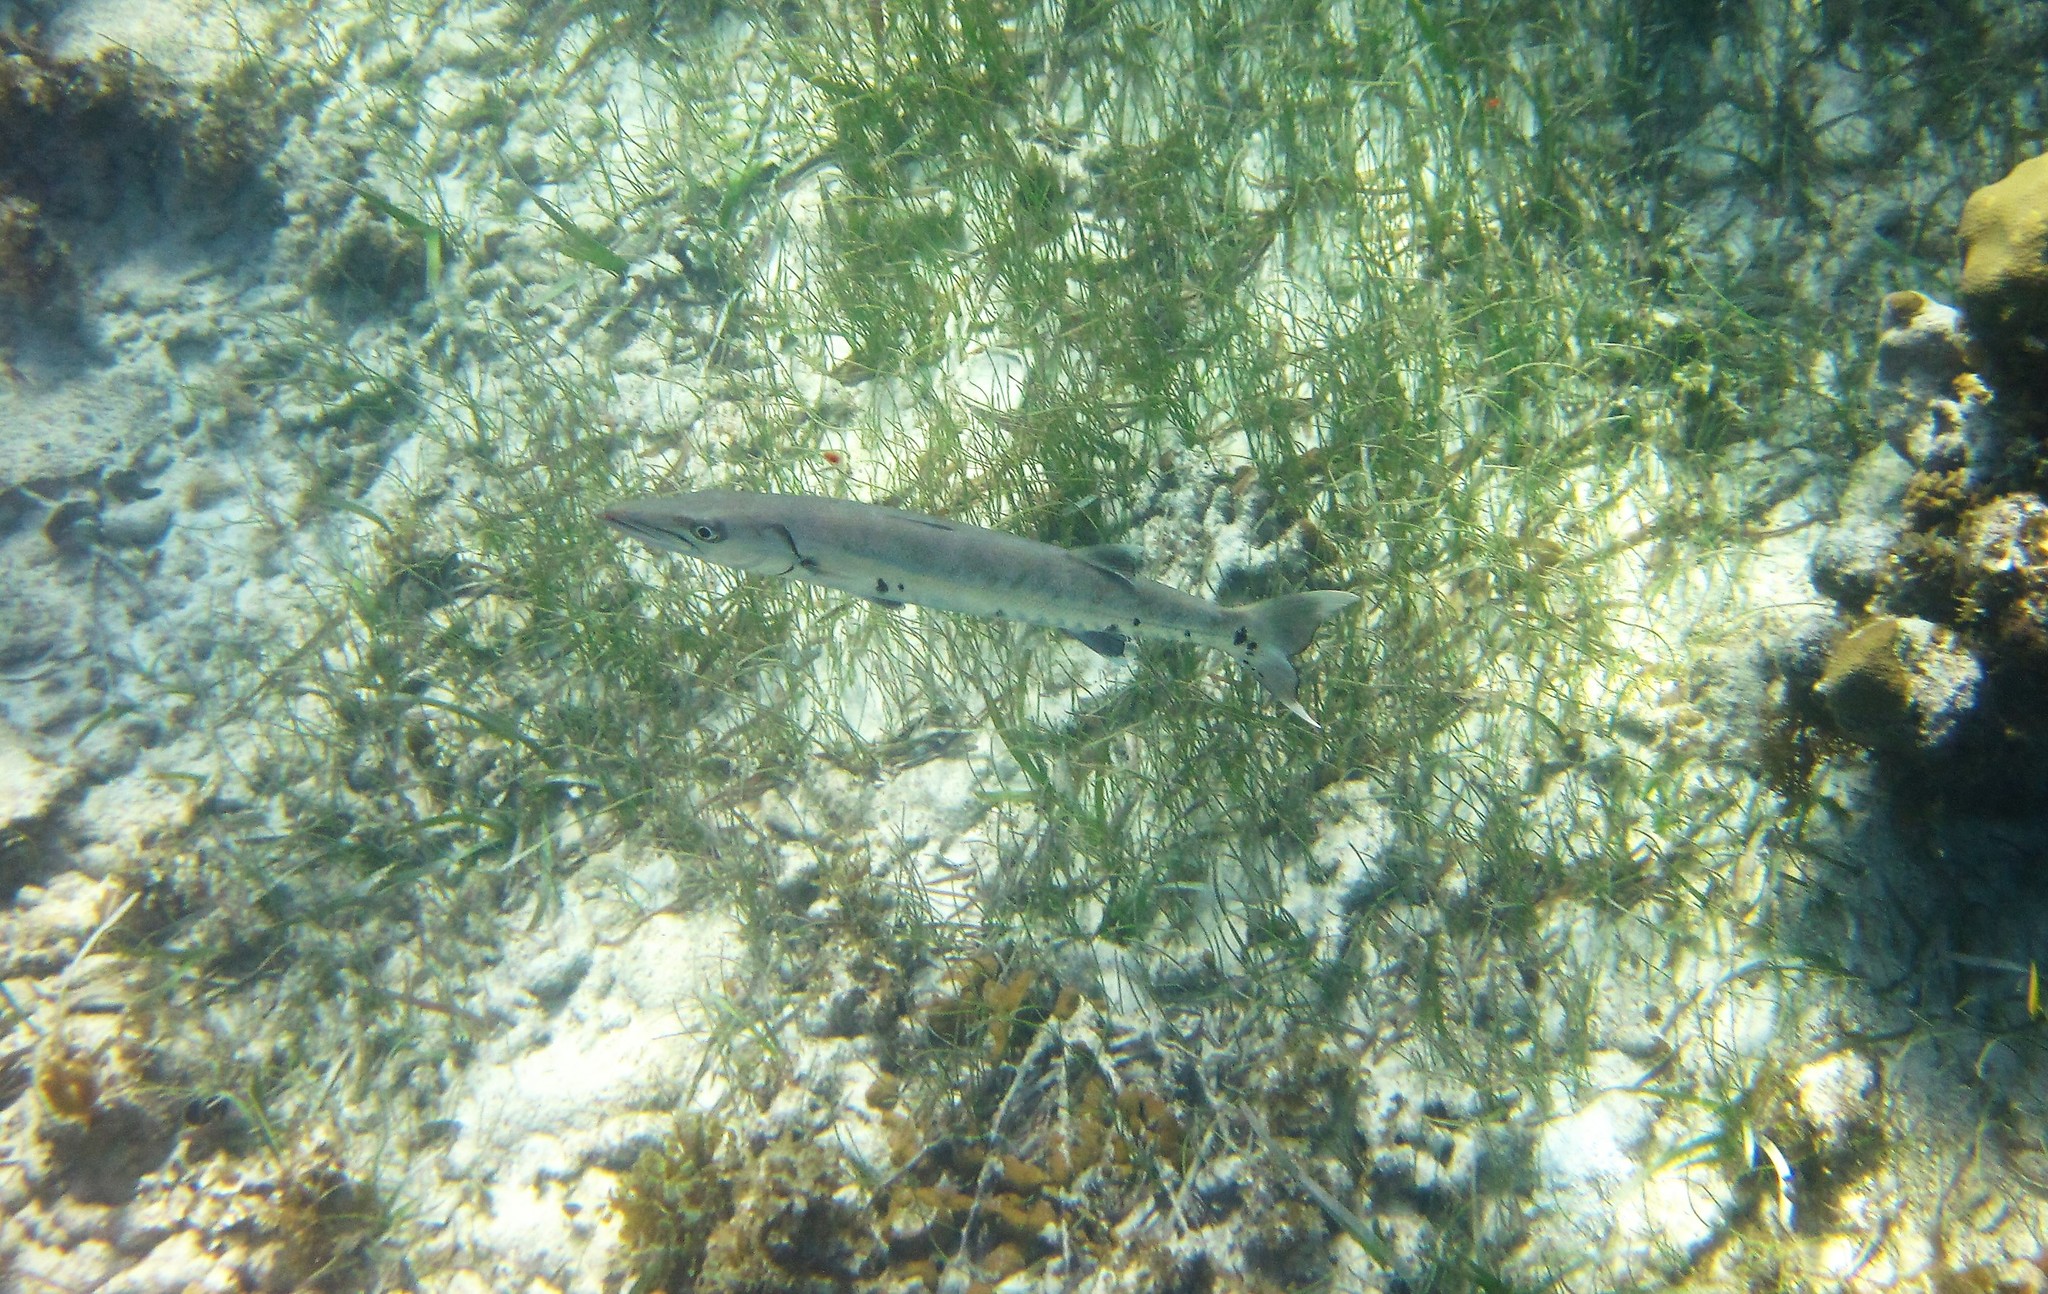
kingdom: Animalia
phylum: Chordata
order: Perciformes
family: Sphyraenidae
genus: Sphyraena
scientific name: Sphyraena barracuda
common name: Great barracuda
